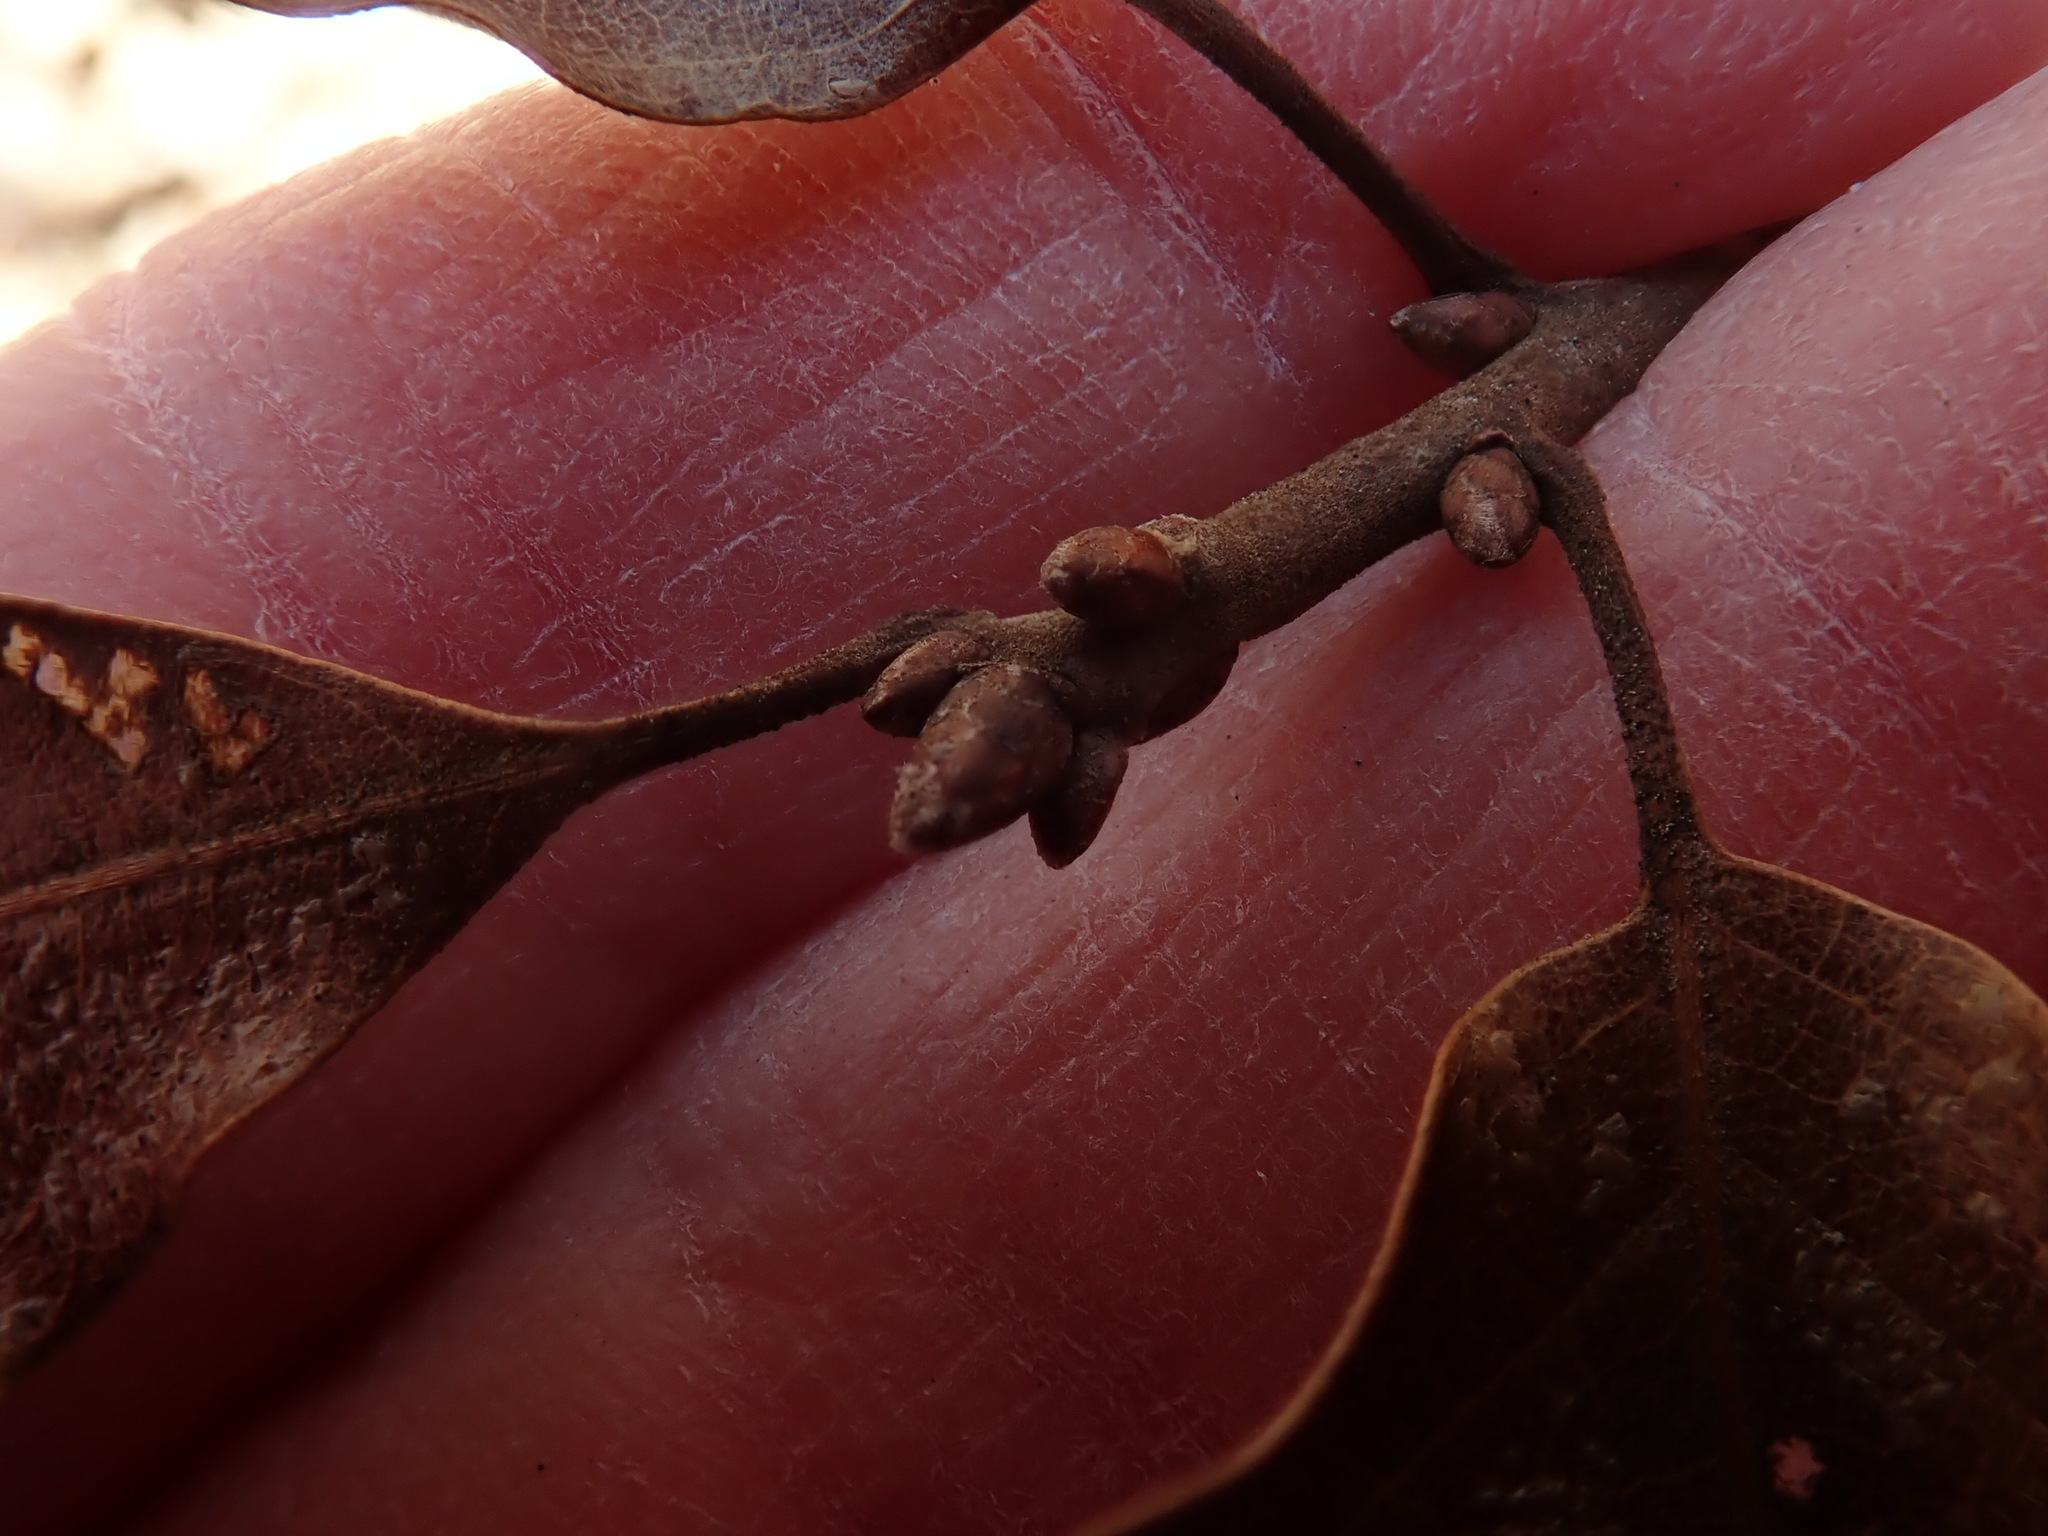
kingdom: Plantae
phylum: Tracheophyta
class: Magnoliopsida
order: Fagales
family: Fagaceae
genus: Quercus
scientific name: Quercus ilicifolia
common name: Bear oak
